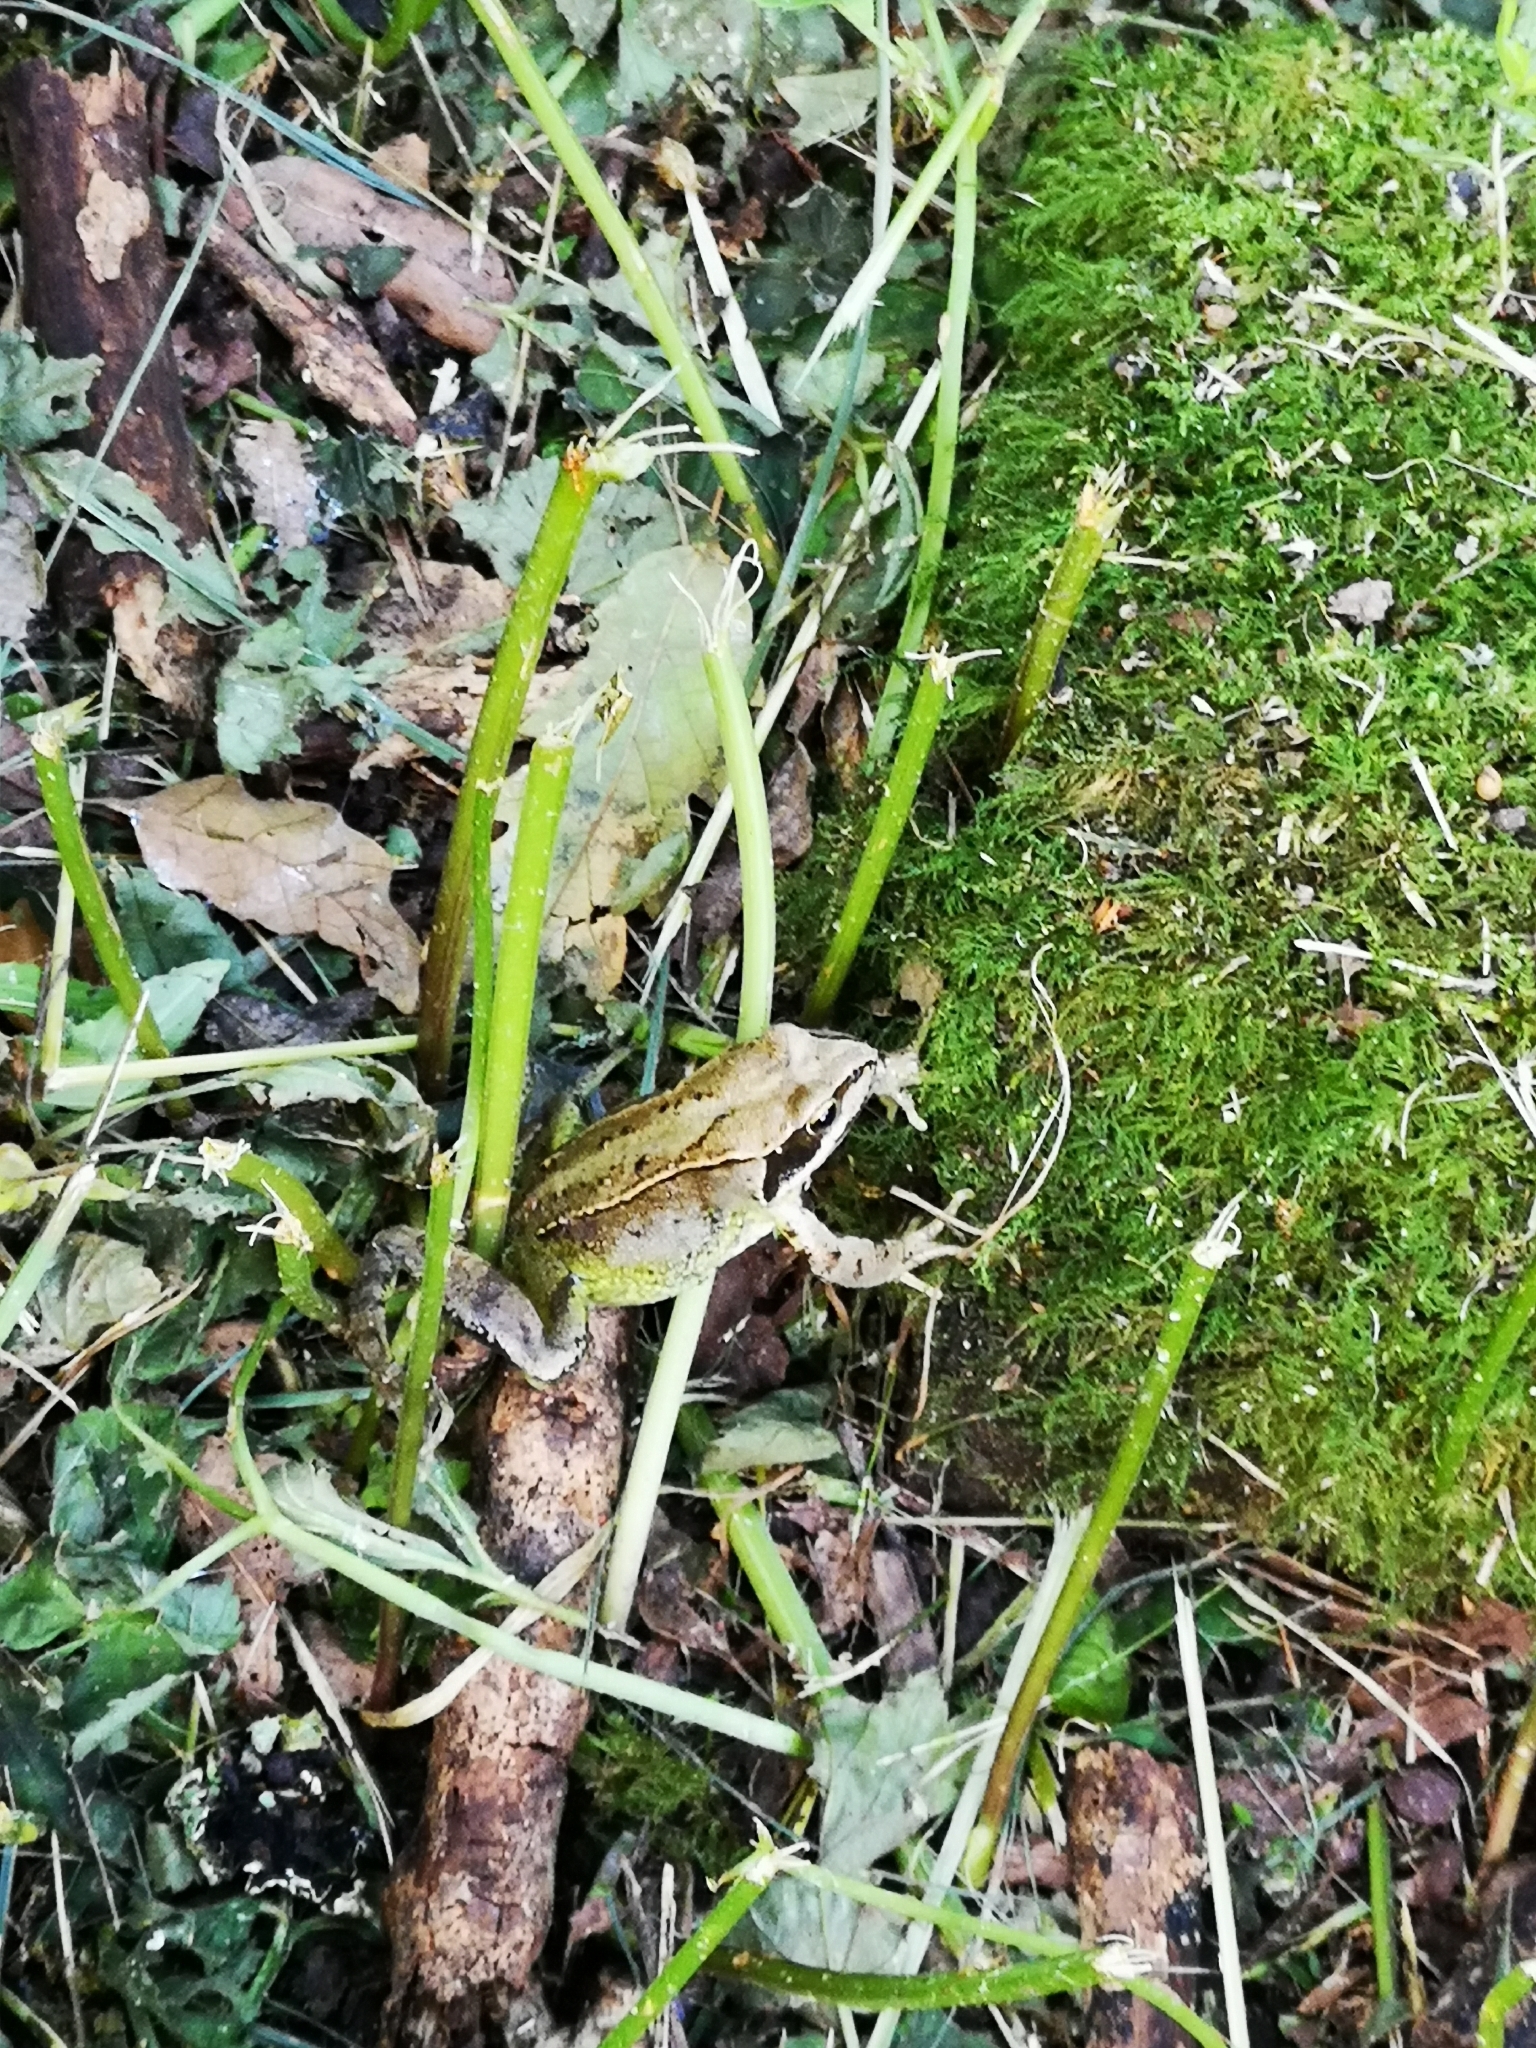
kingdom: Animalia
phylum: Chordata
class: Amphibia
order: Anura
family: Ranidae
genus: Rana
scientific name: Rana temporaria
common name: Common frog
